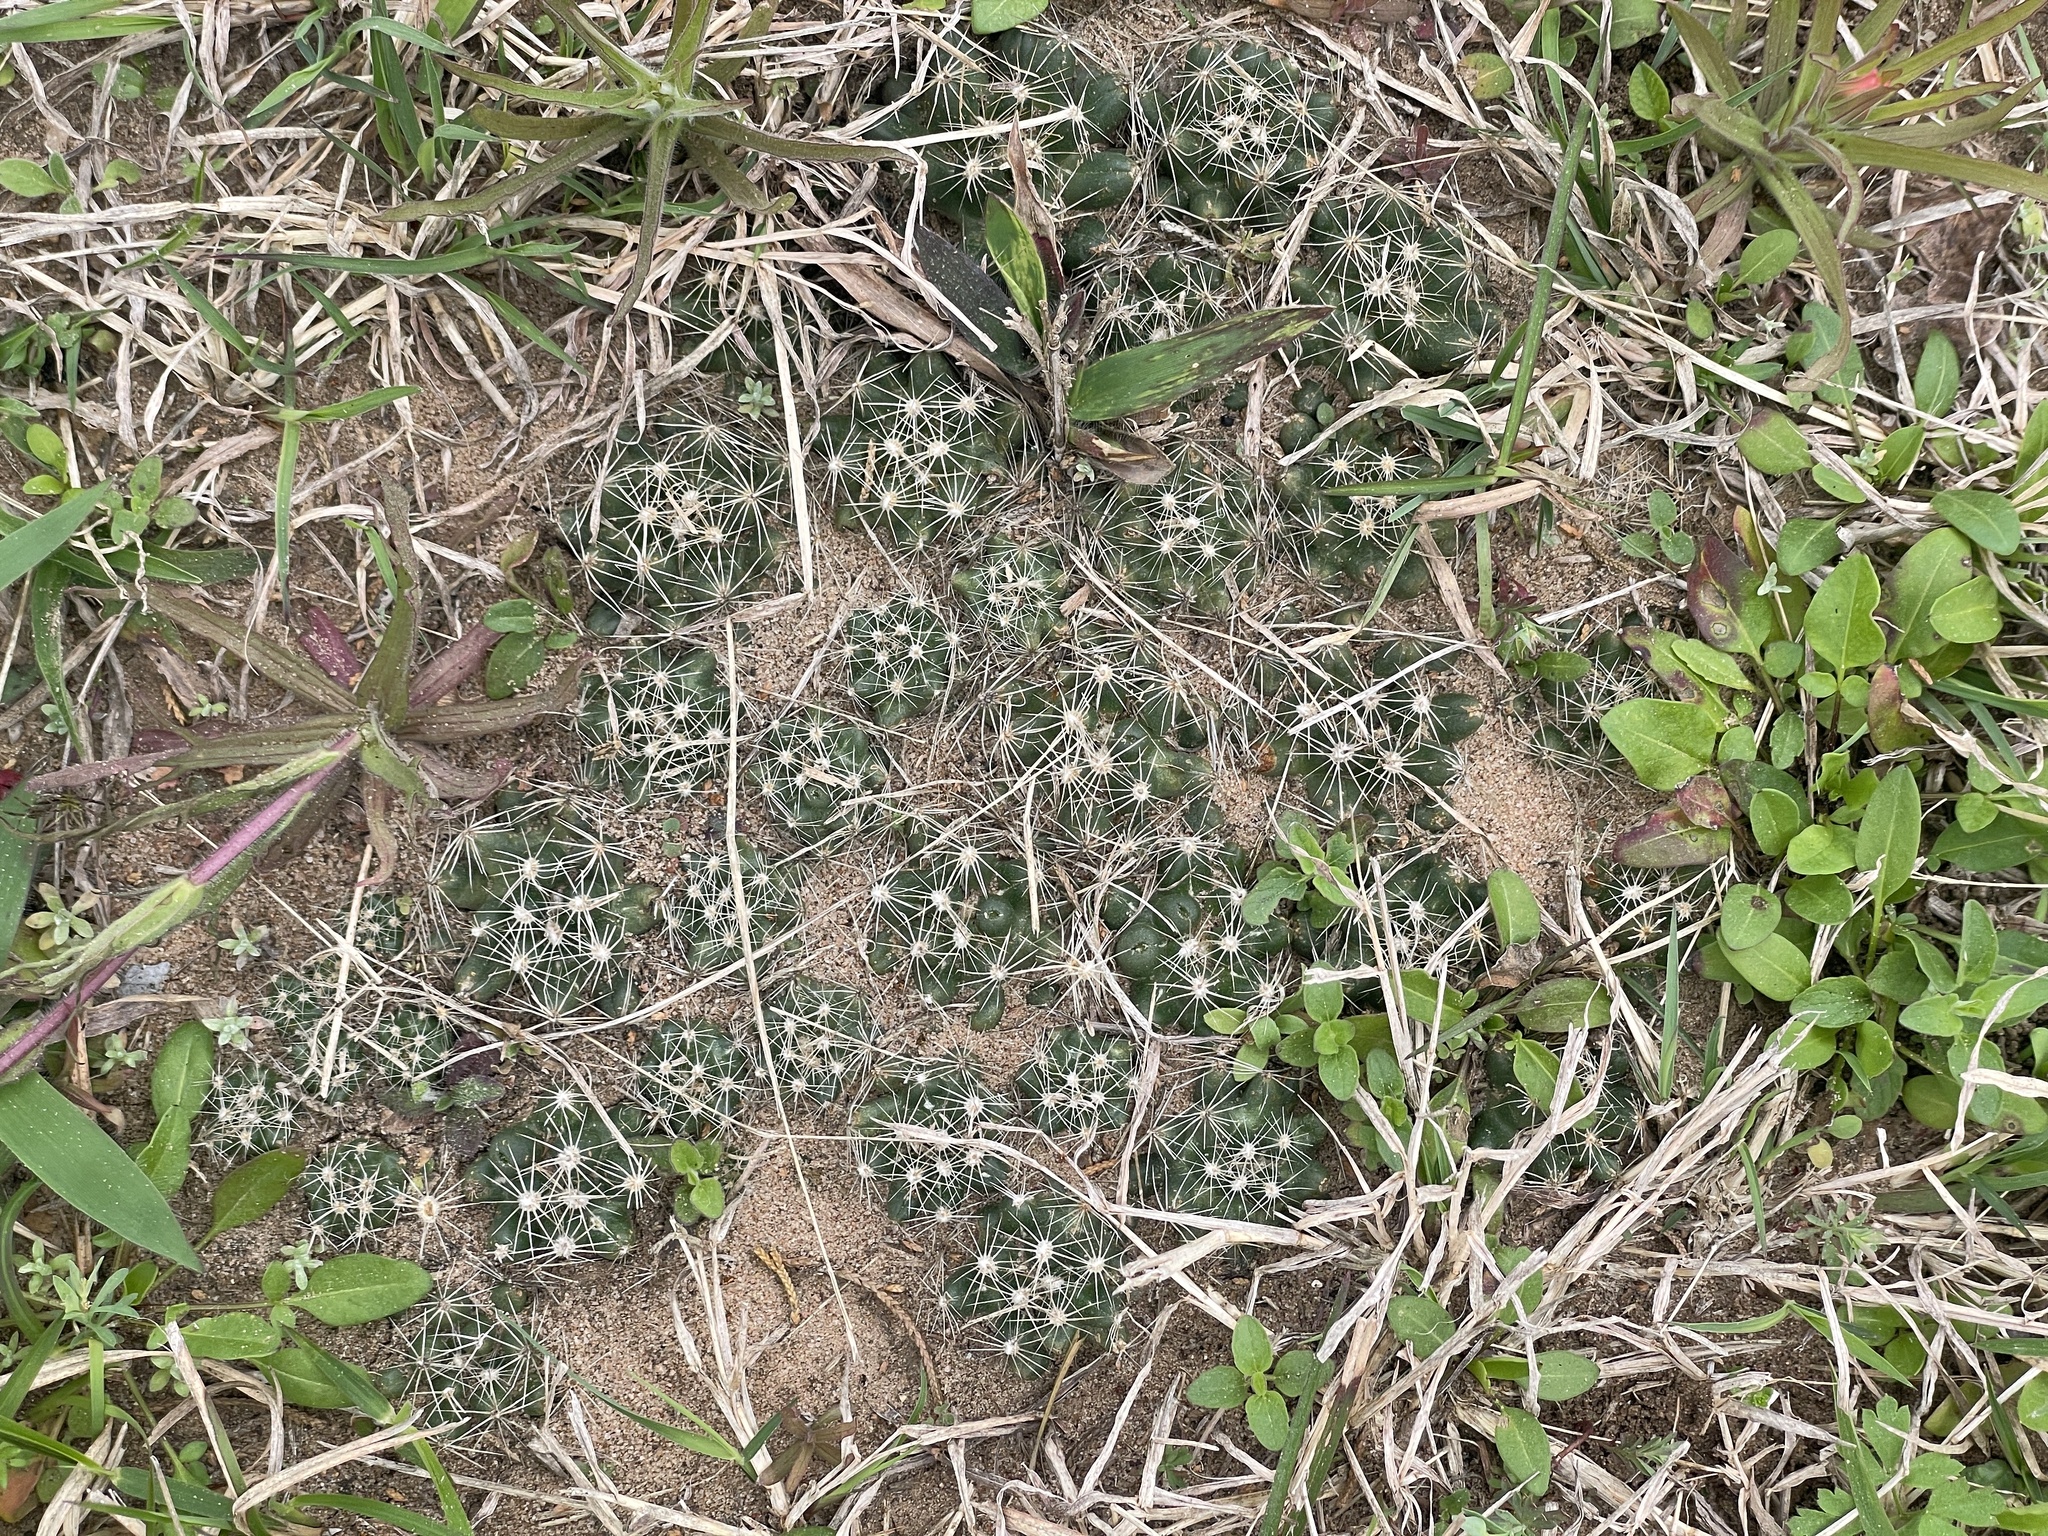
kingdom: Plantae
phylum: Tracheophyta
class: Magnoliopsida
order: Caryophyllales
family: Cactaceae
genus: Pelecyphora
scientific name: Pelecyphora missouriensis
